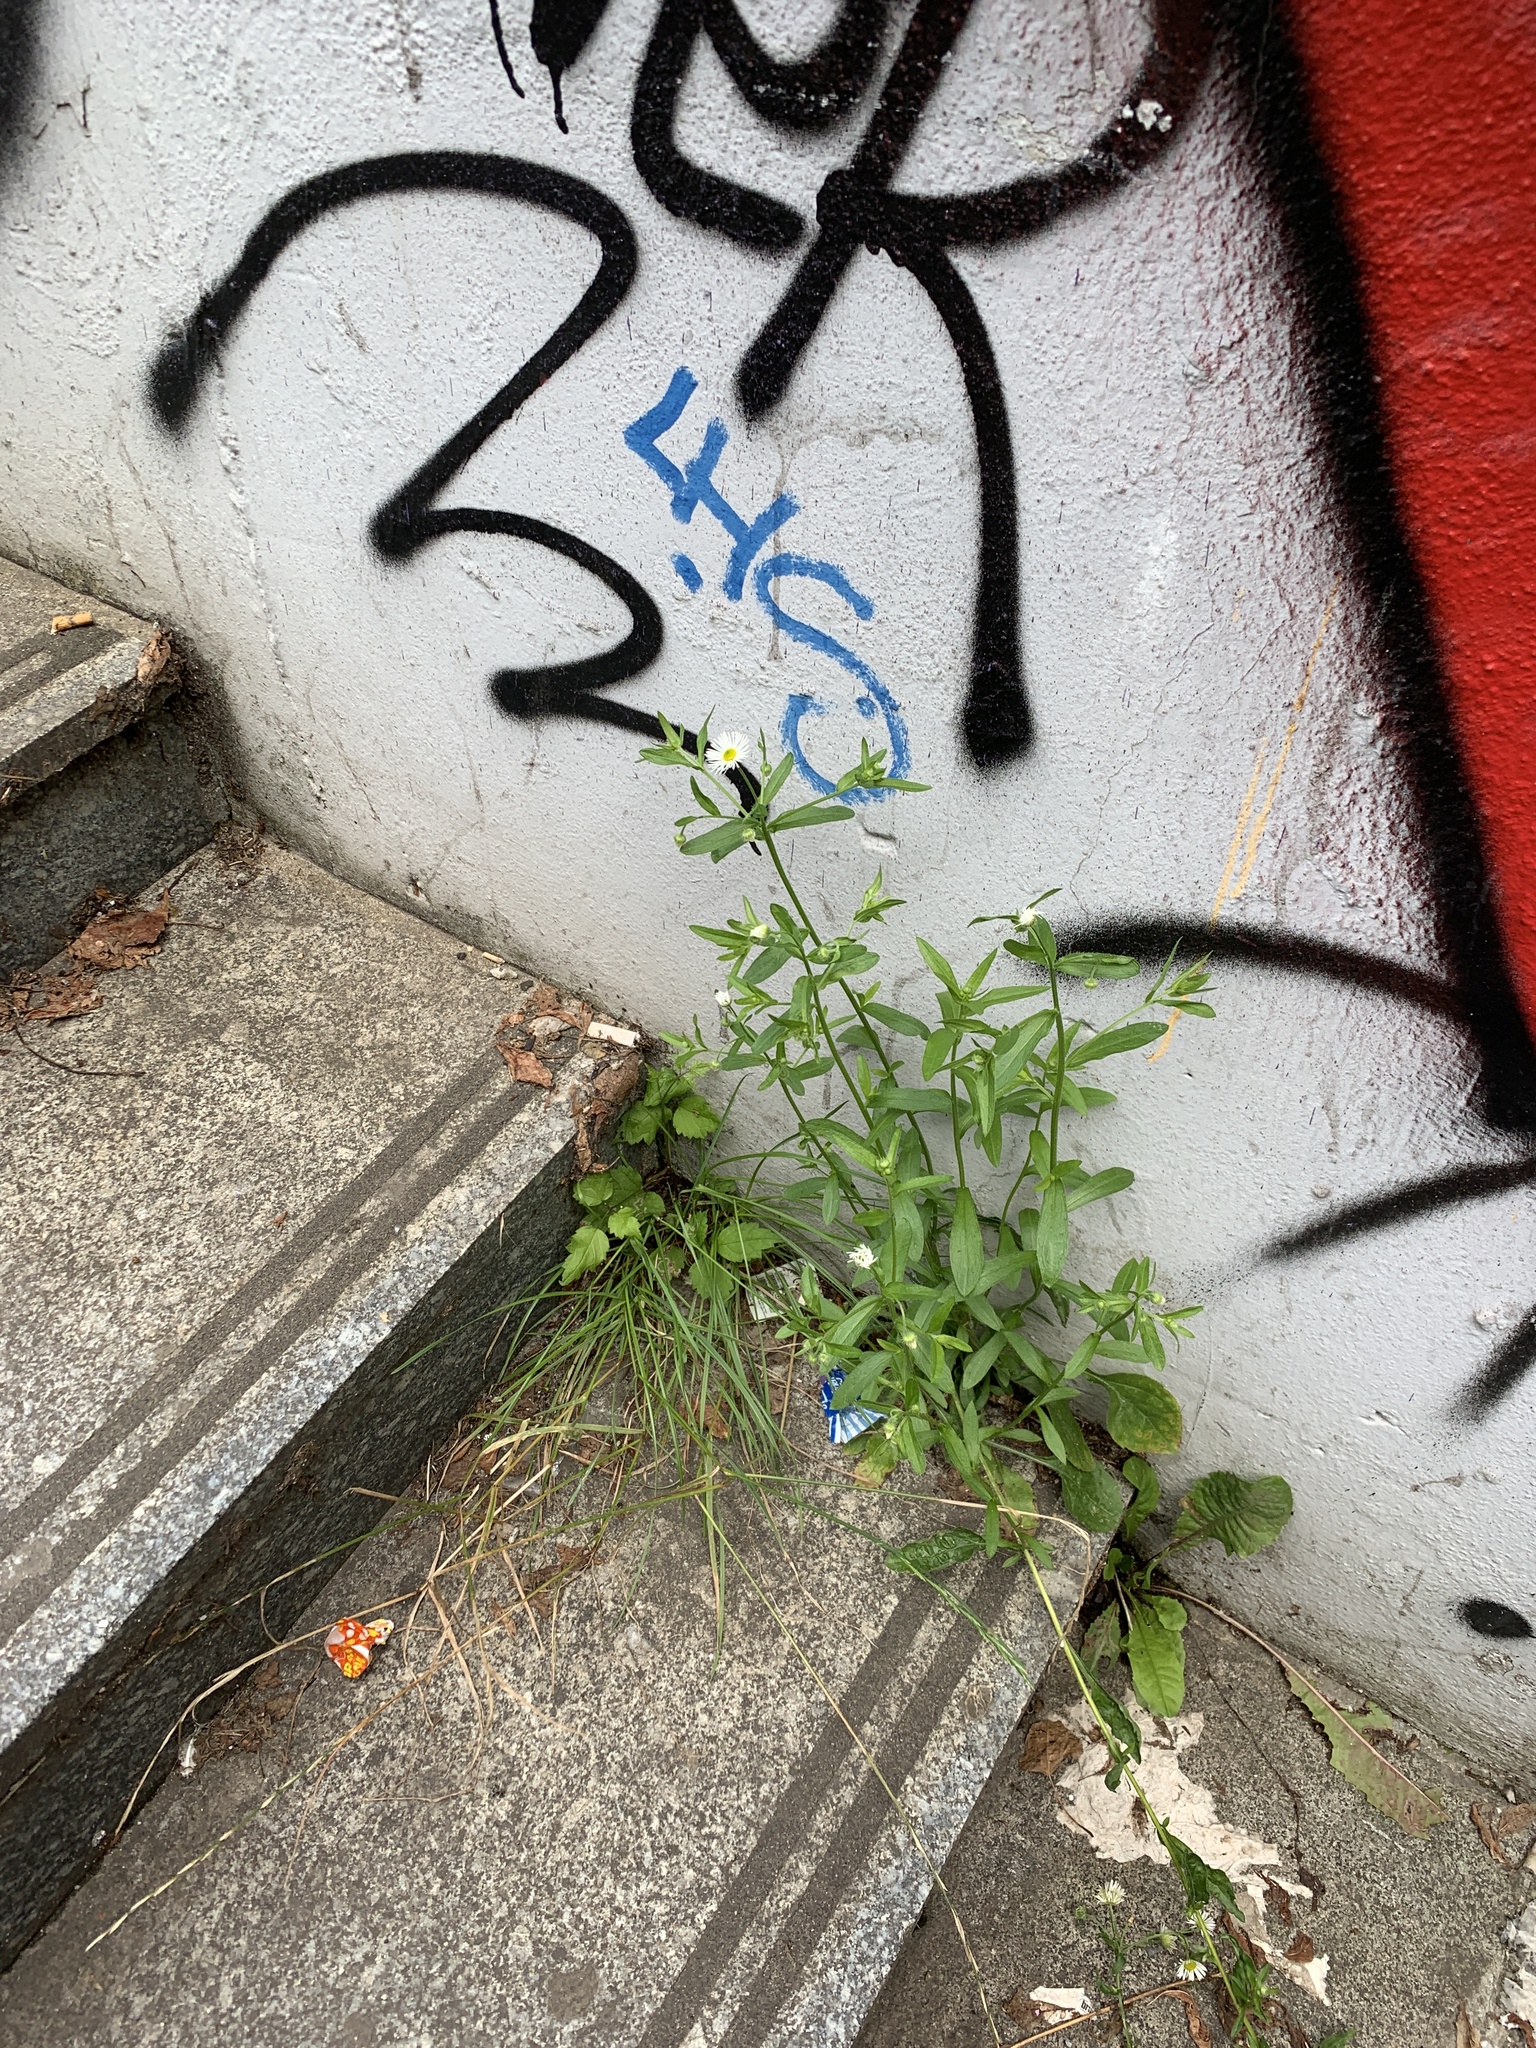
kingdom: Plantae
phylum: Tracheophyta
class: Magnoliopsida
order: Asterales
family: Asteraceae
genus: Erigeron
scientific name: Erigeron annuus
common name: Tall fleabane
